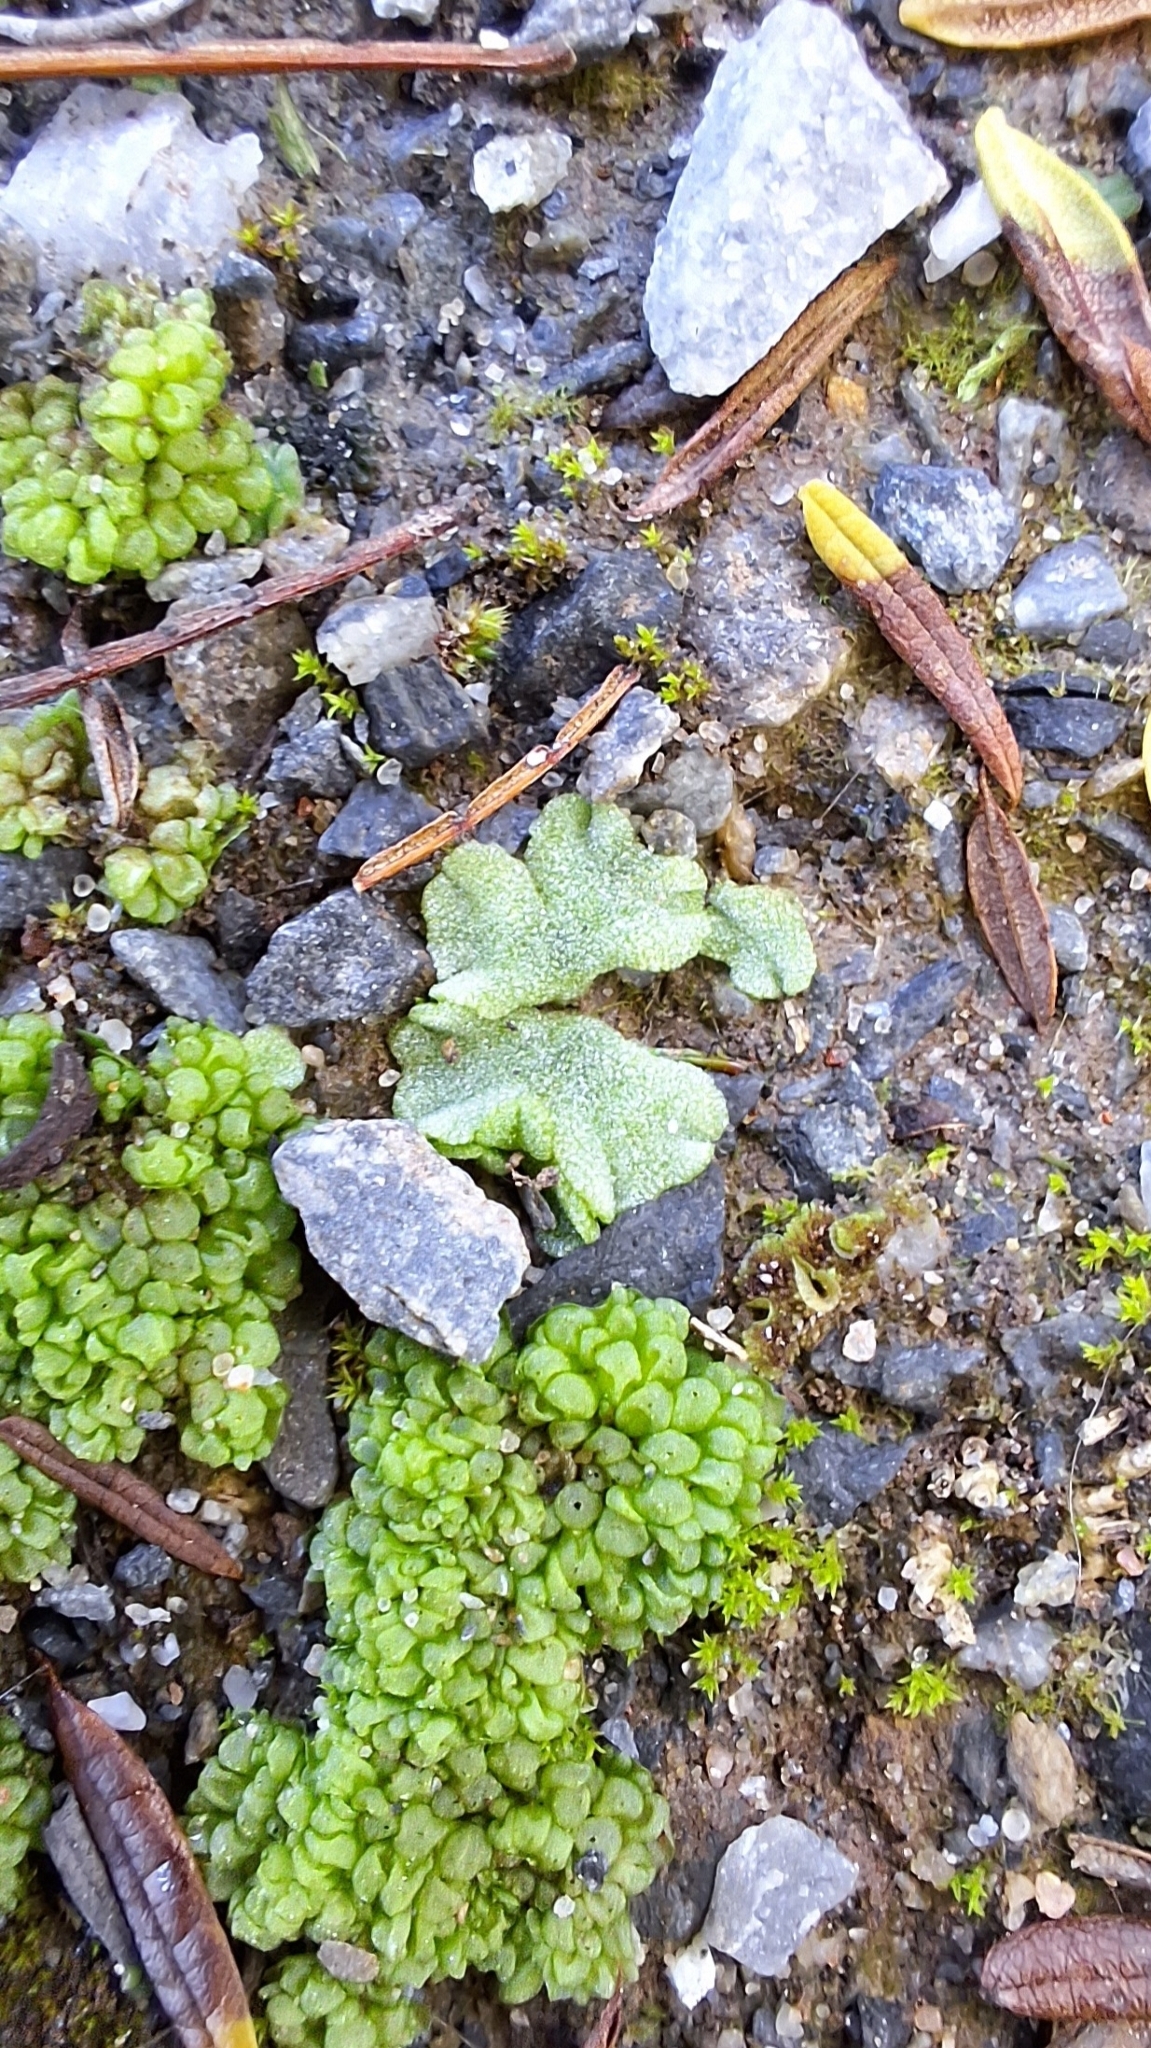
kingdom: Plantae
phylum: Marchantiophyta
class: Marchantiopsida
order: Marchantiales
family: Ricciaceae
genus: Riccia
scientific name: Riccia crystallina
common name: Blue crystalwort
